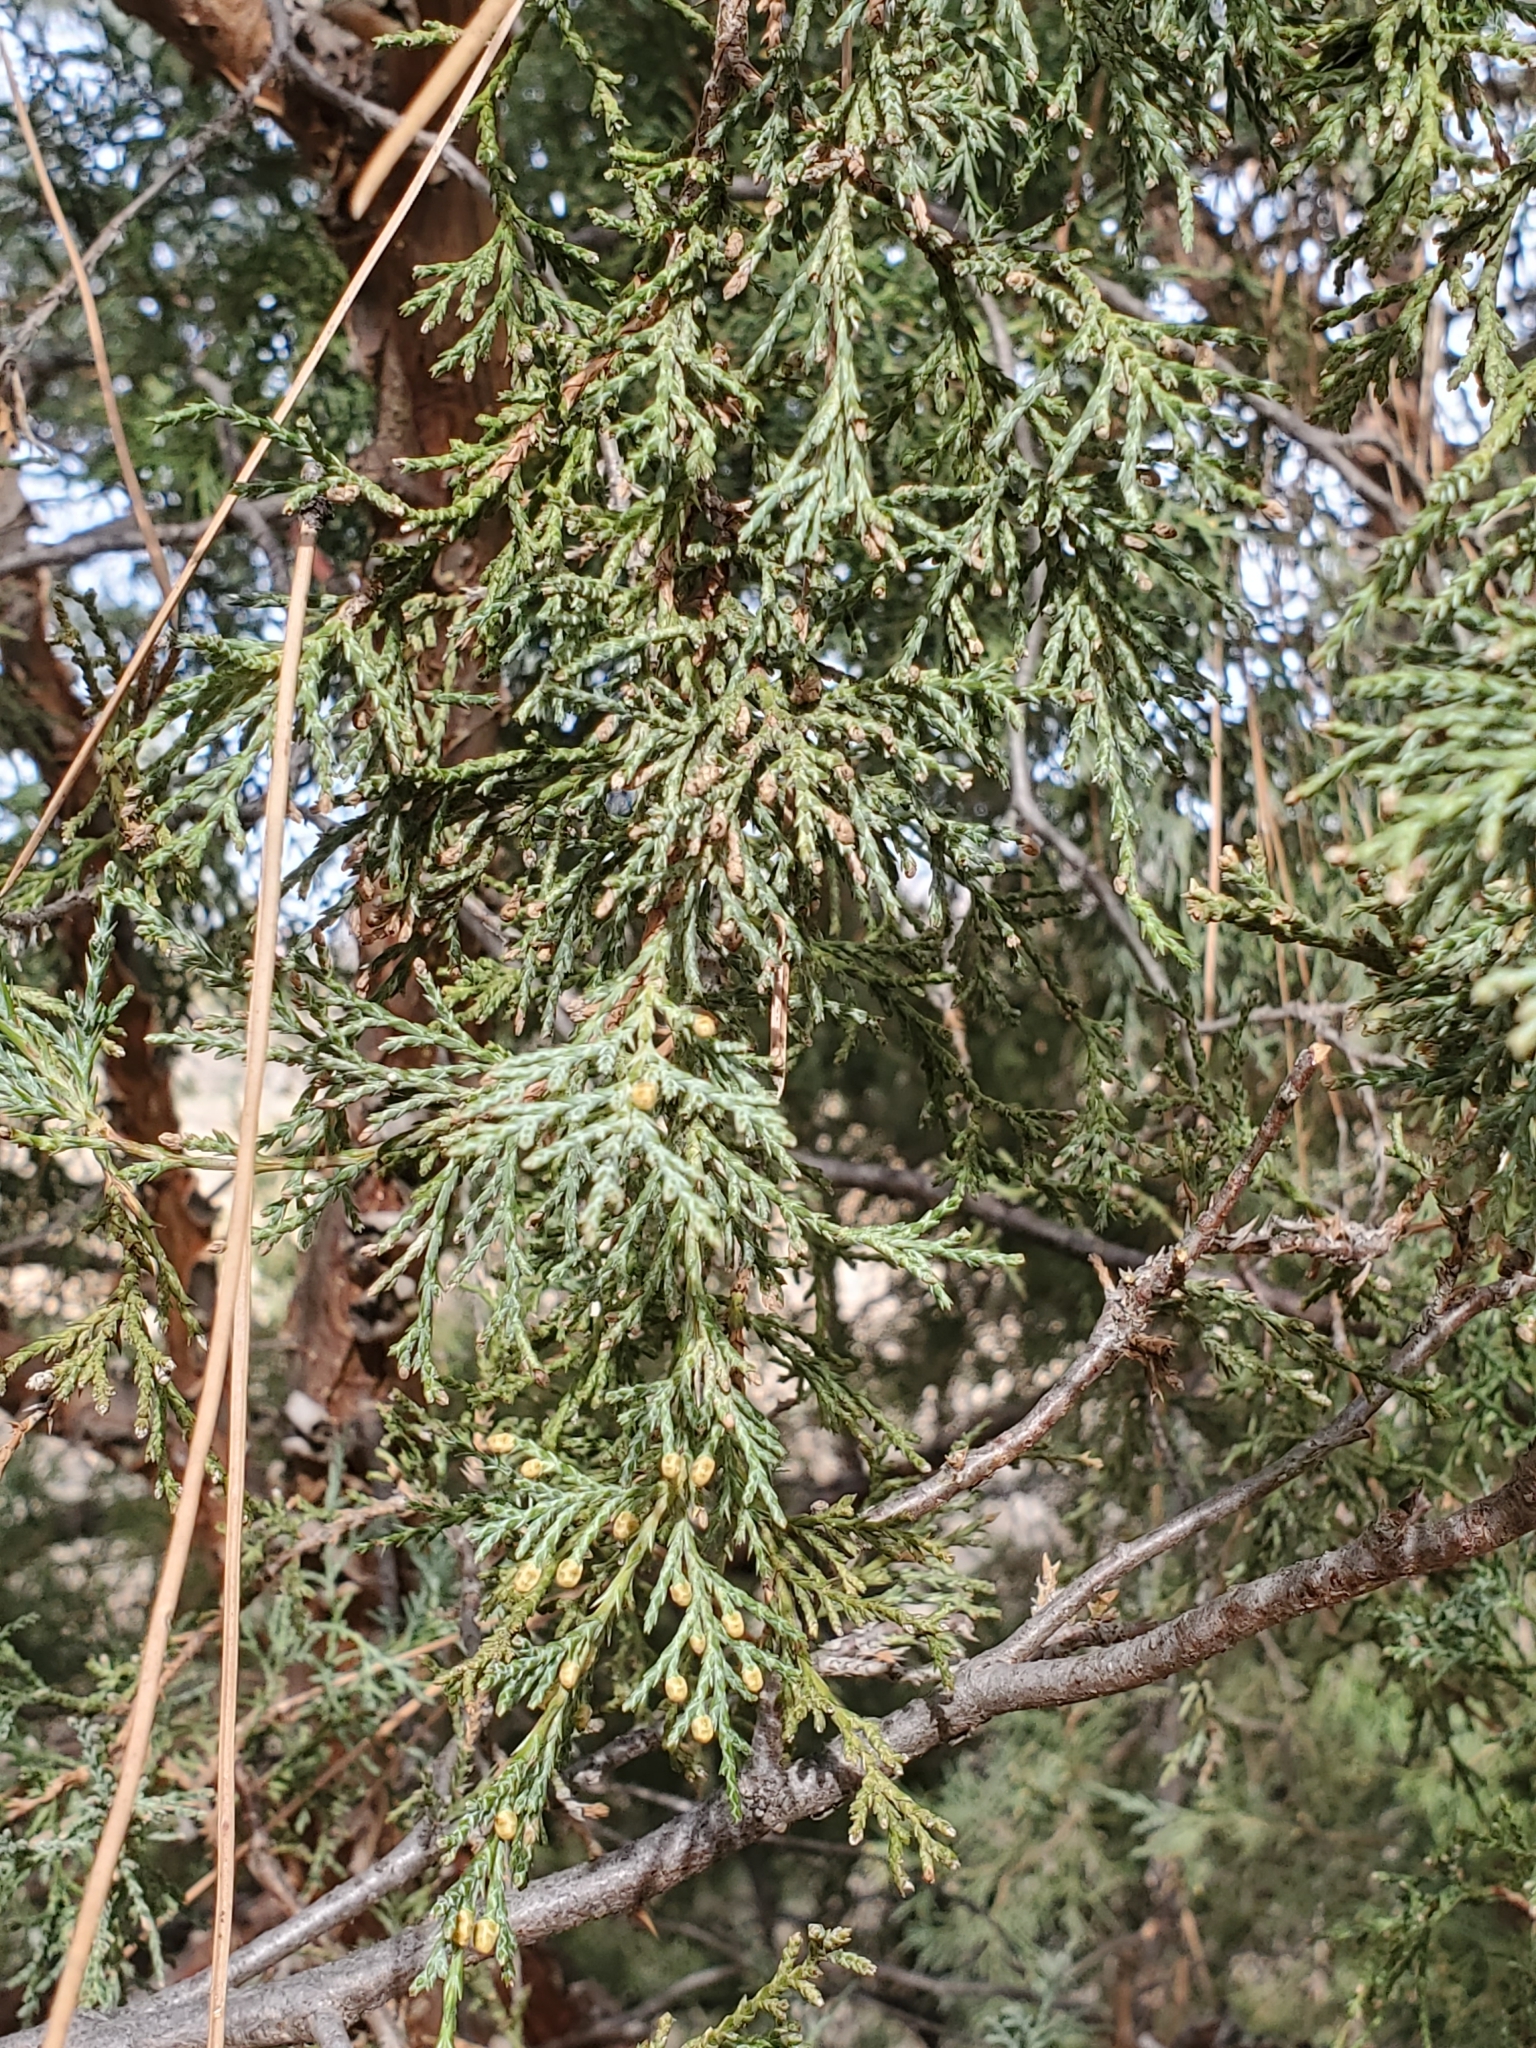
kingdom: Plantae
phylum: Tracheophyta
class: Pinopsida
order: Pinales
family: Cupressaceae
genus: Juniperus
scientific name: Juniperus scopulorum
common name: Rocky mountain juniper
